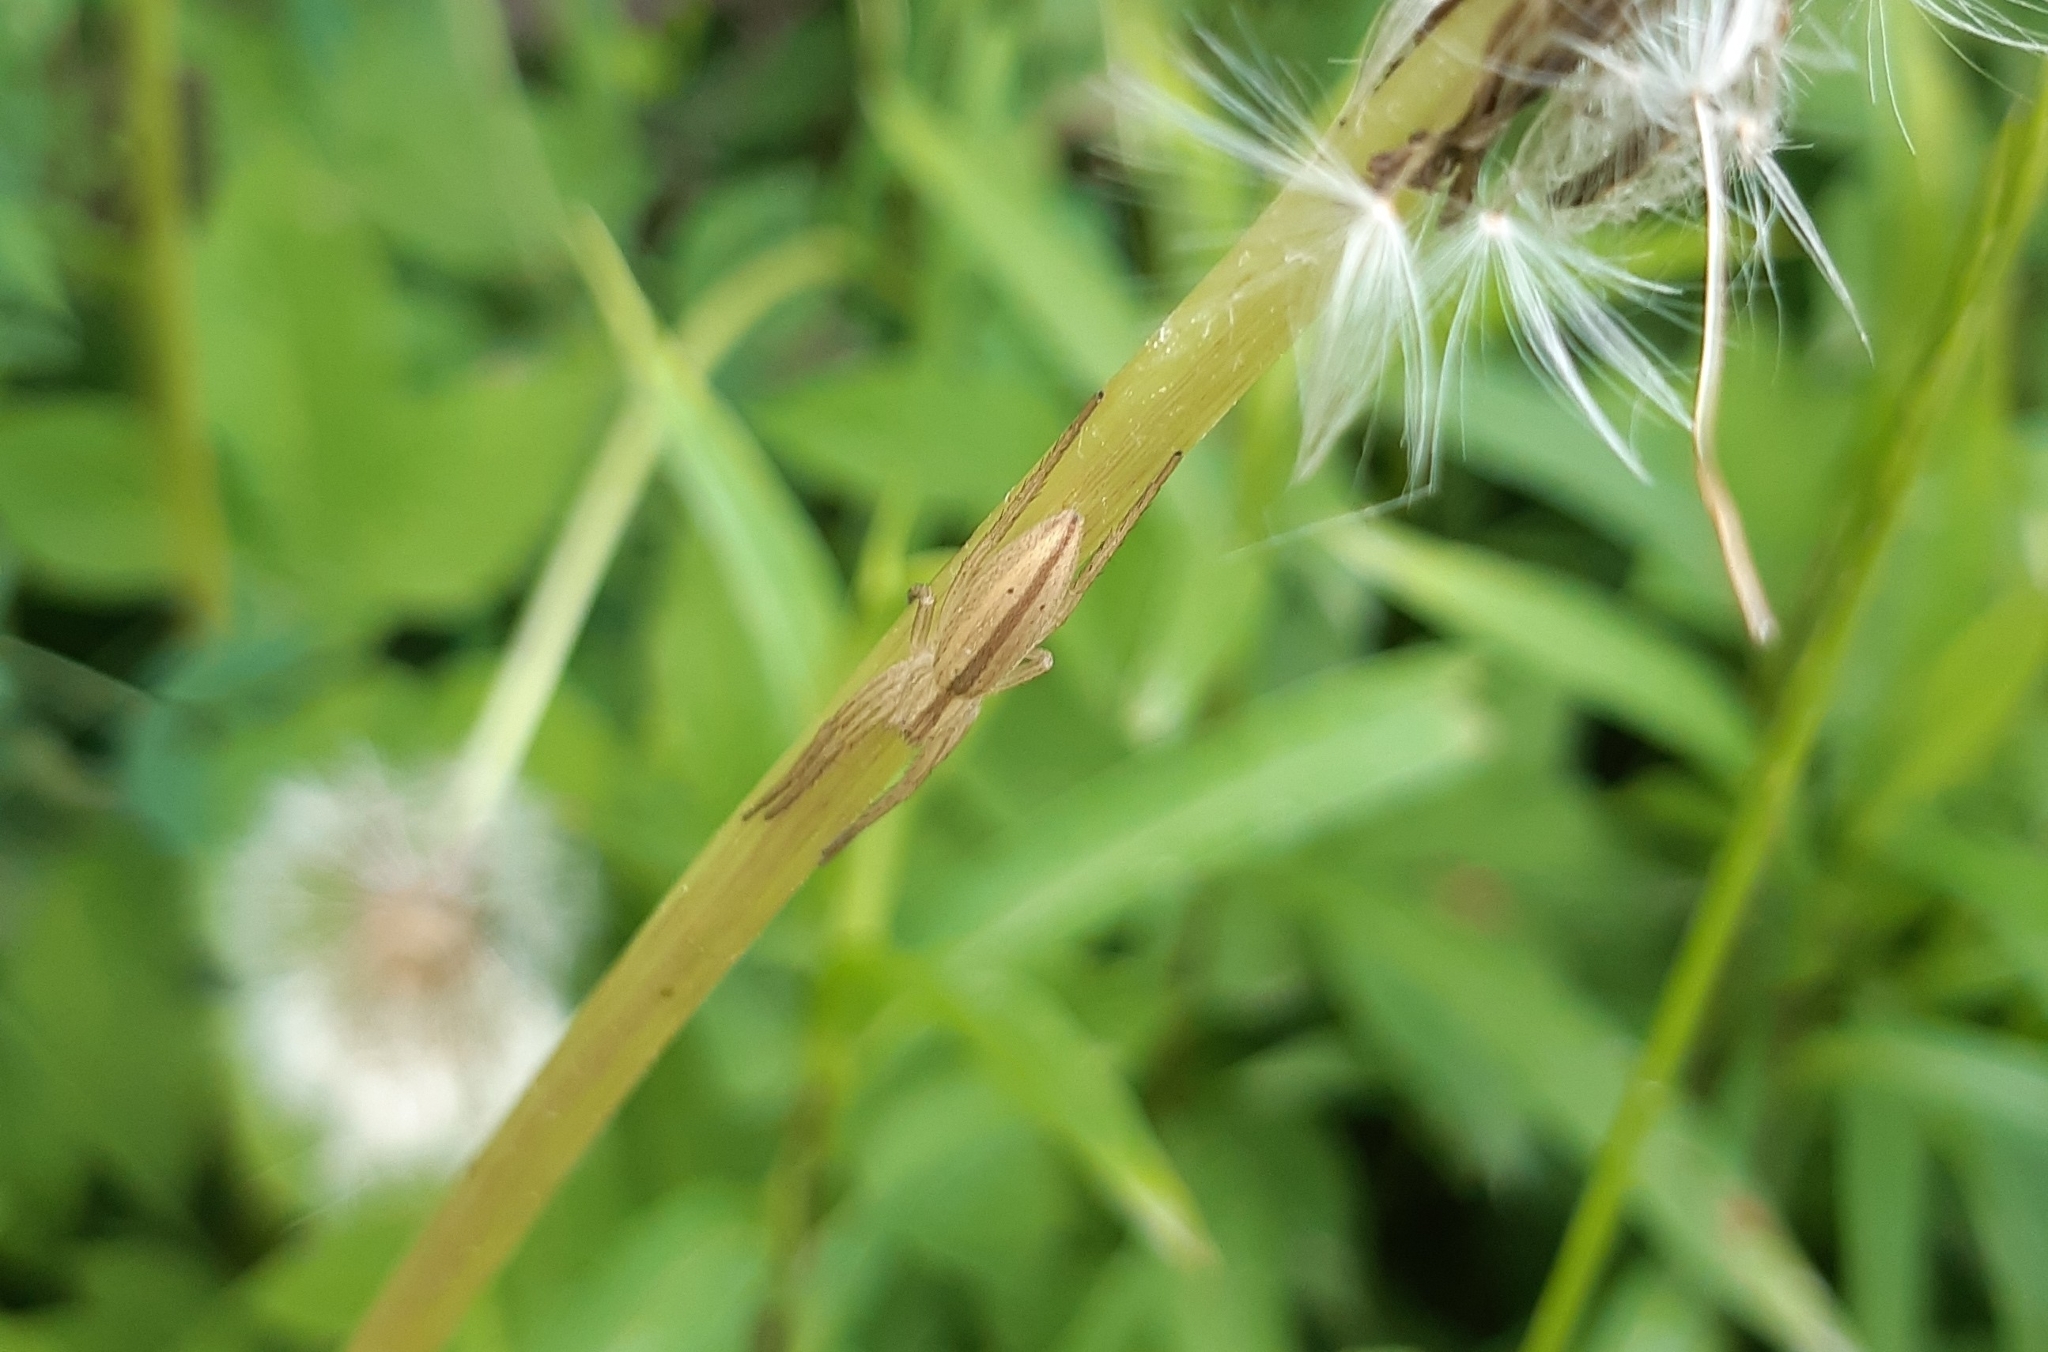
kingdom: Animalia
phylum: Arthropoda
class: Arachnida
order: Araneae
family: Philodromidae
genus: Tibellus
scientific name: Tibellus
